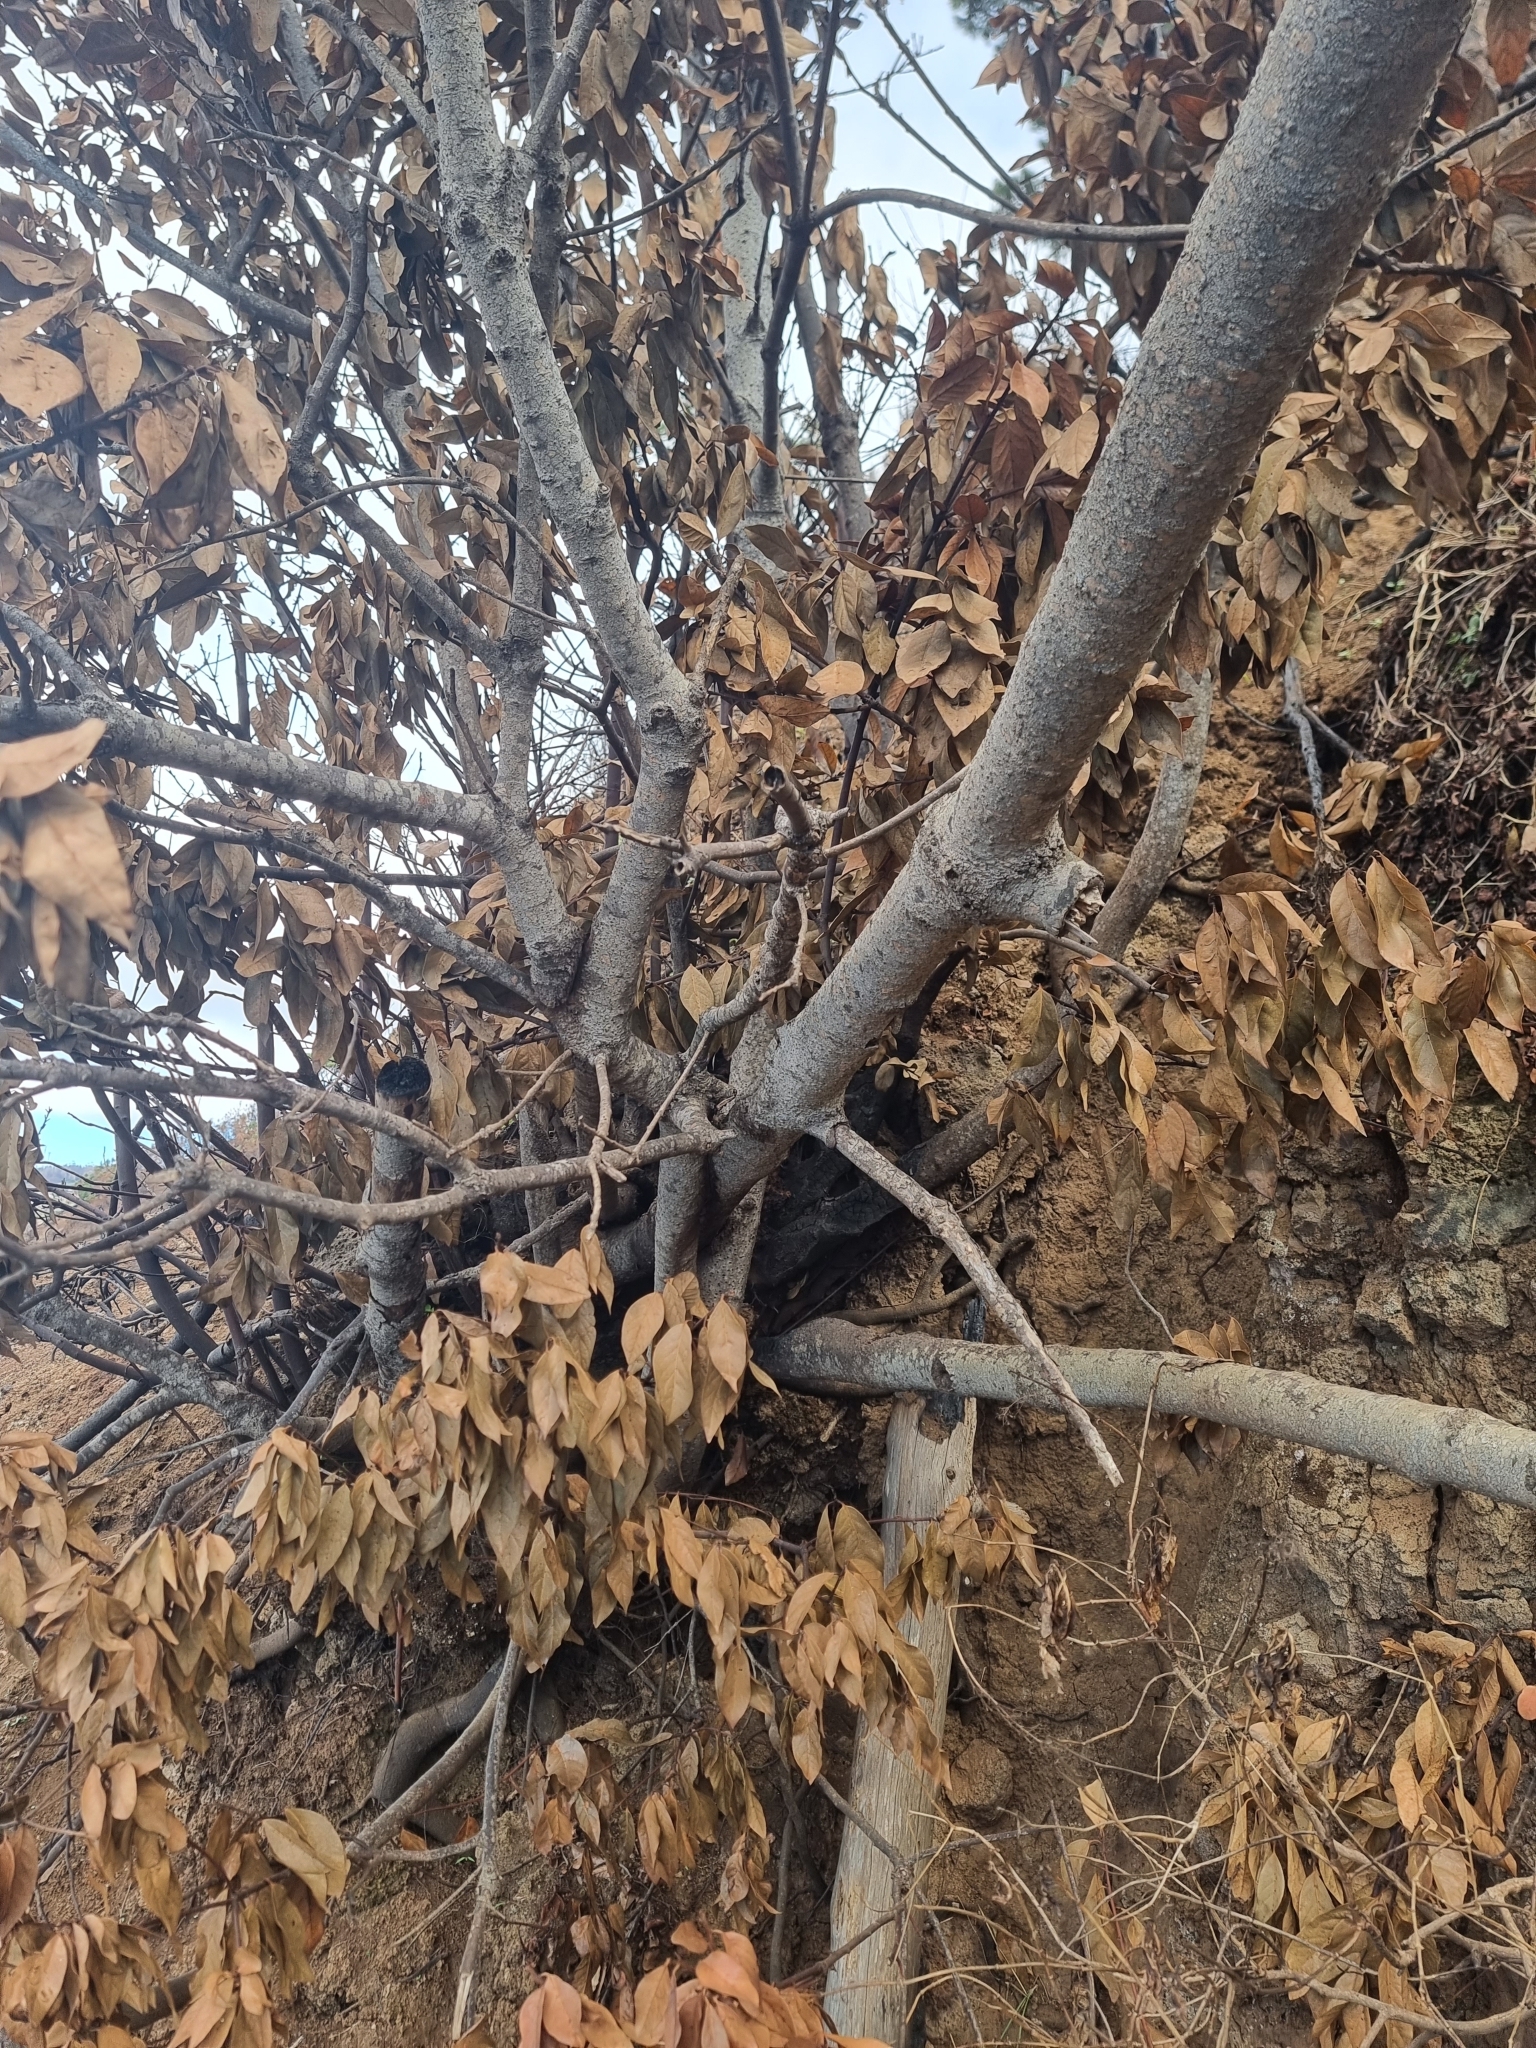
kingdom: Plantae
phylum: Tracheophyta
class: Magnoliopsida
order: Laurales
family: Lauraceae
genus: Laurus
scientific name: Laurus novocanariensis
